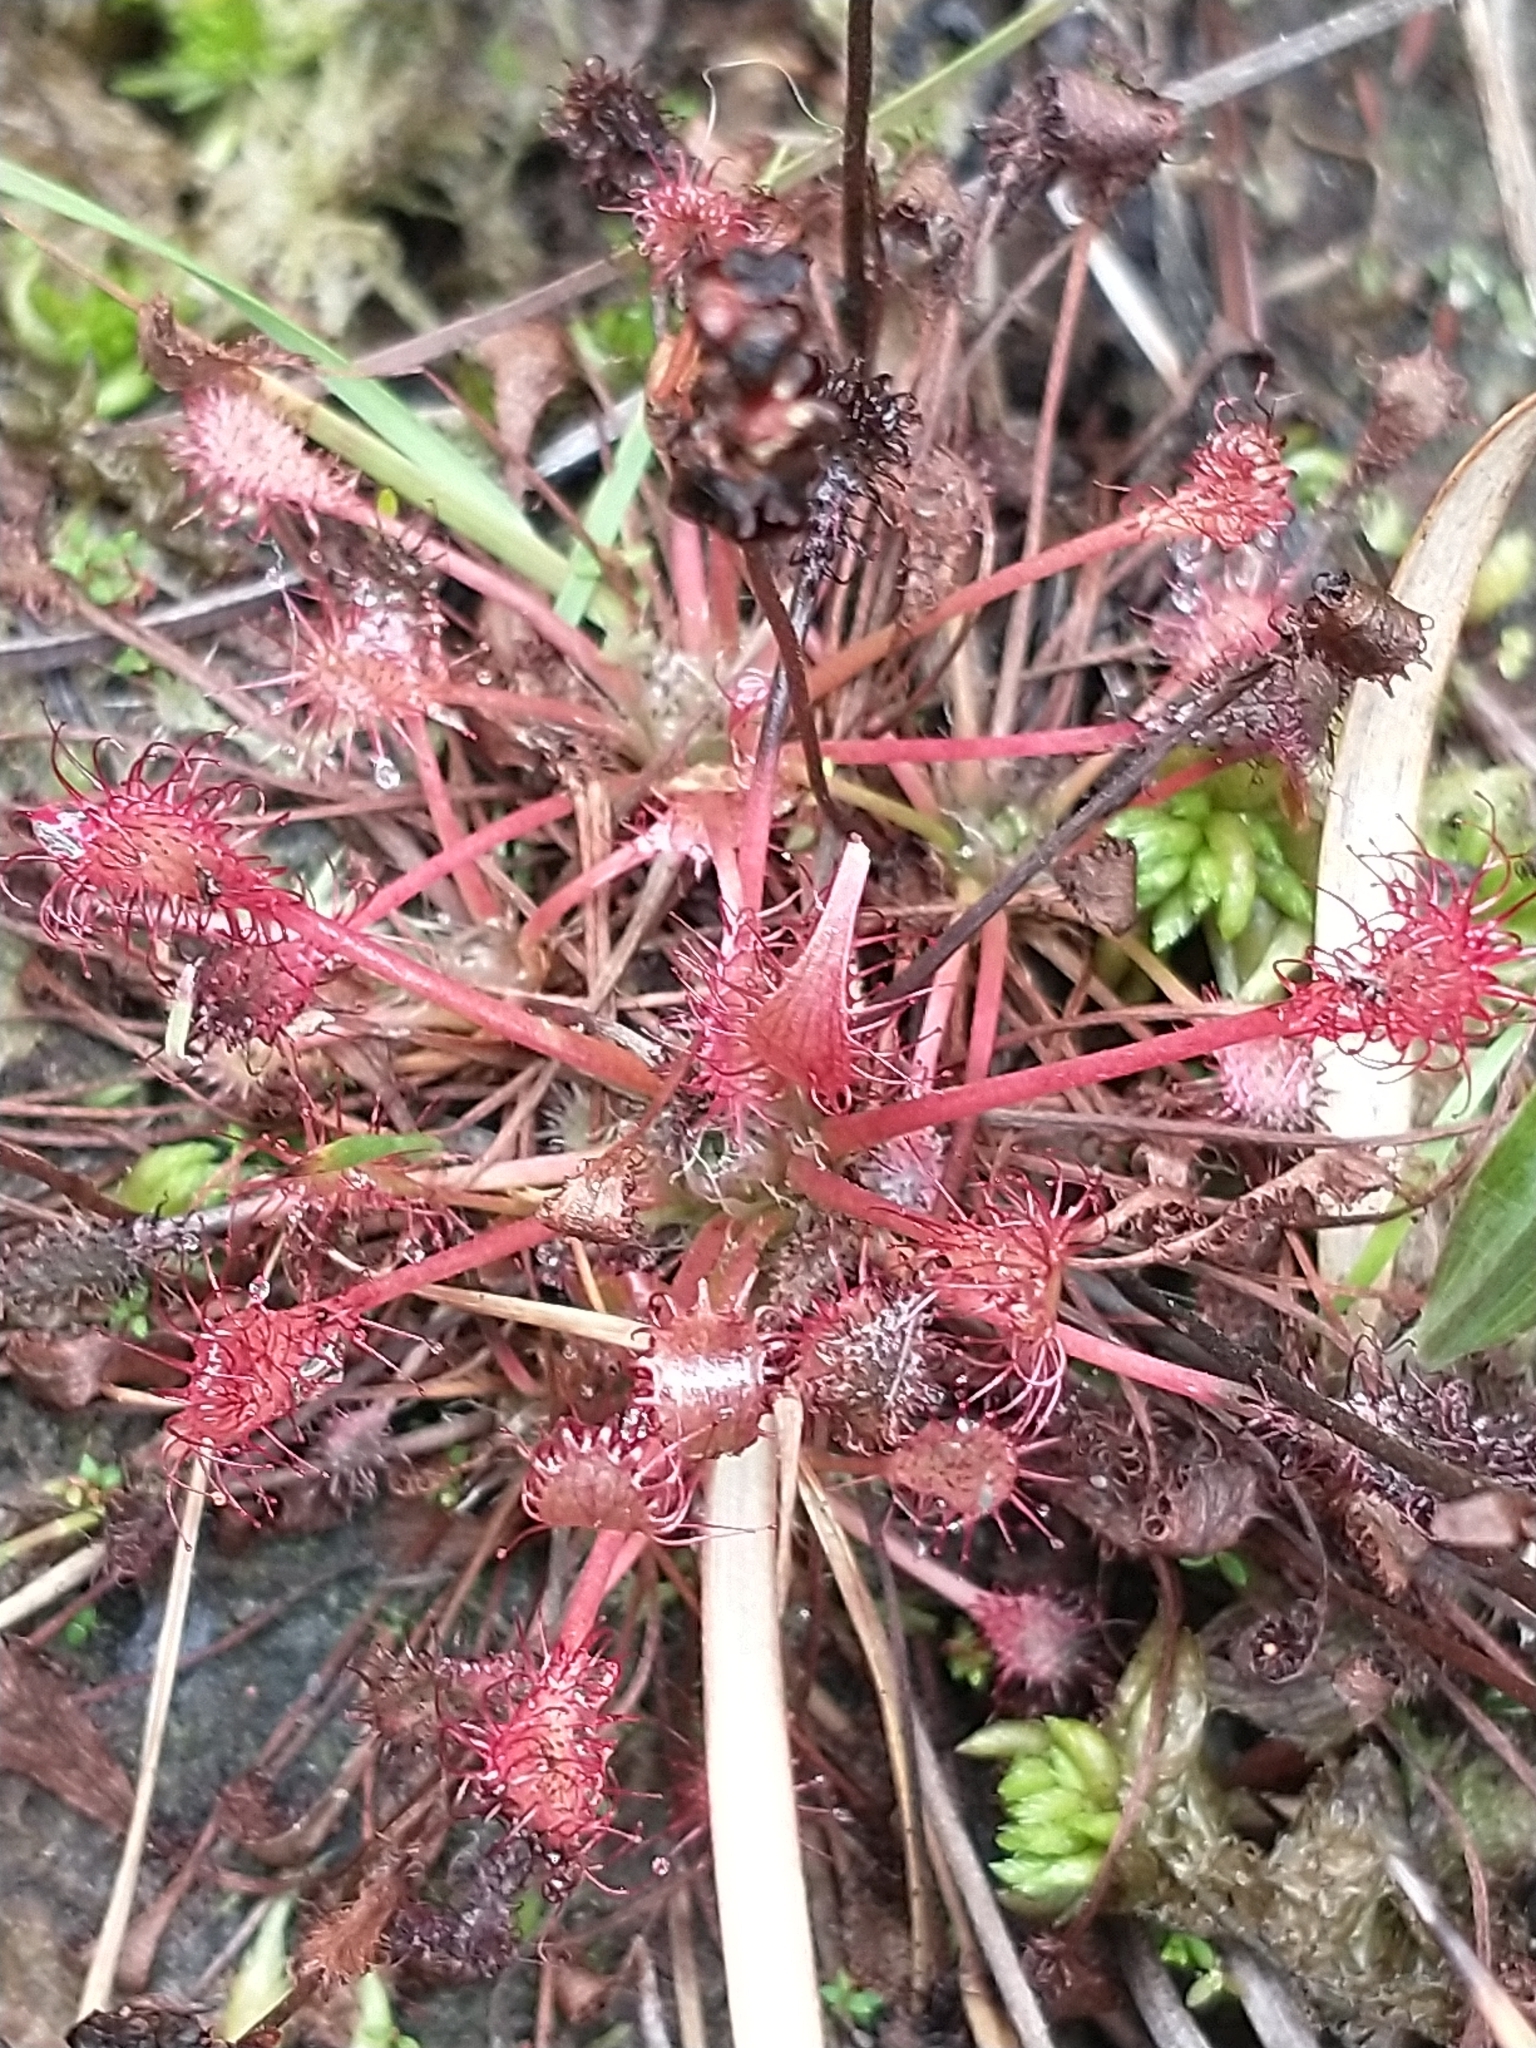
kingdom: Plantae
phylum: Tracheophyta
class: Magnoliopsida
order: Caryophyllales
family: Droseraceae
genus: Drosera
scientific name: Drosera intermedia
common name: Oblong-leaved sundew
